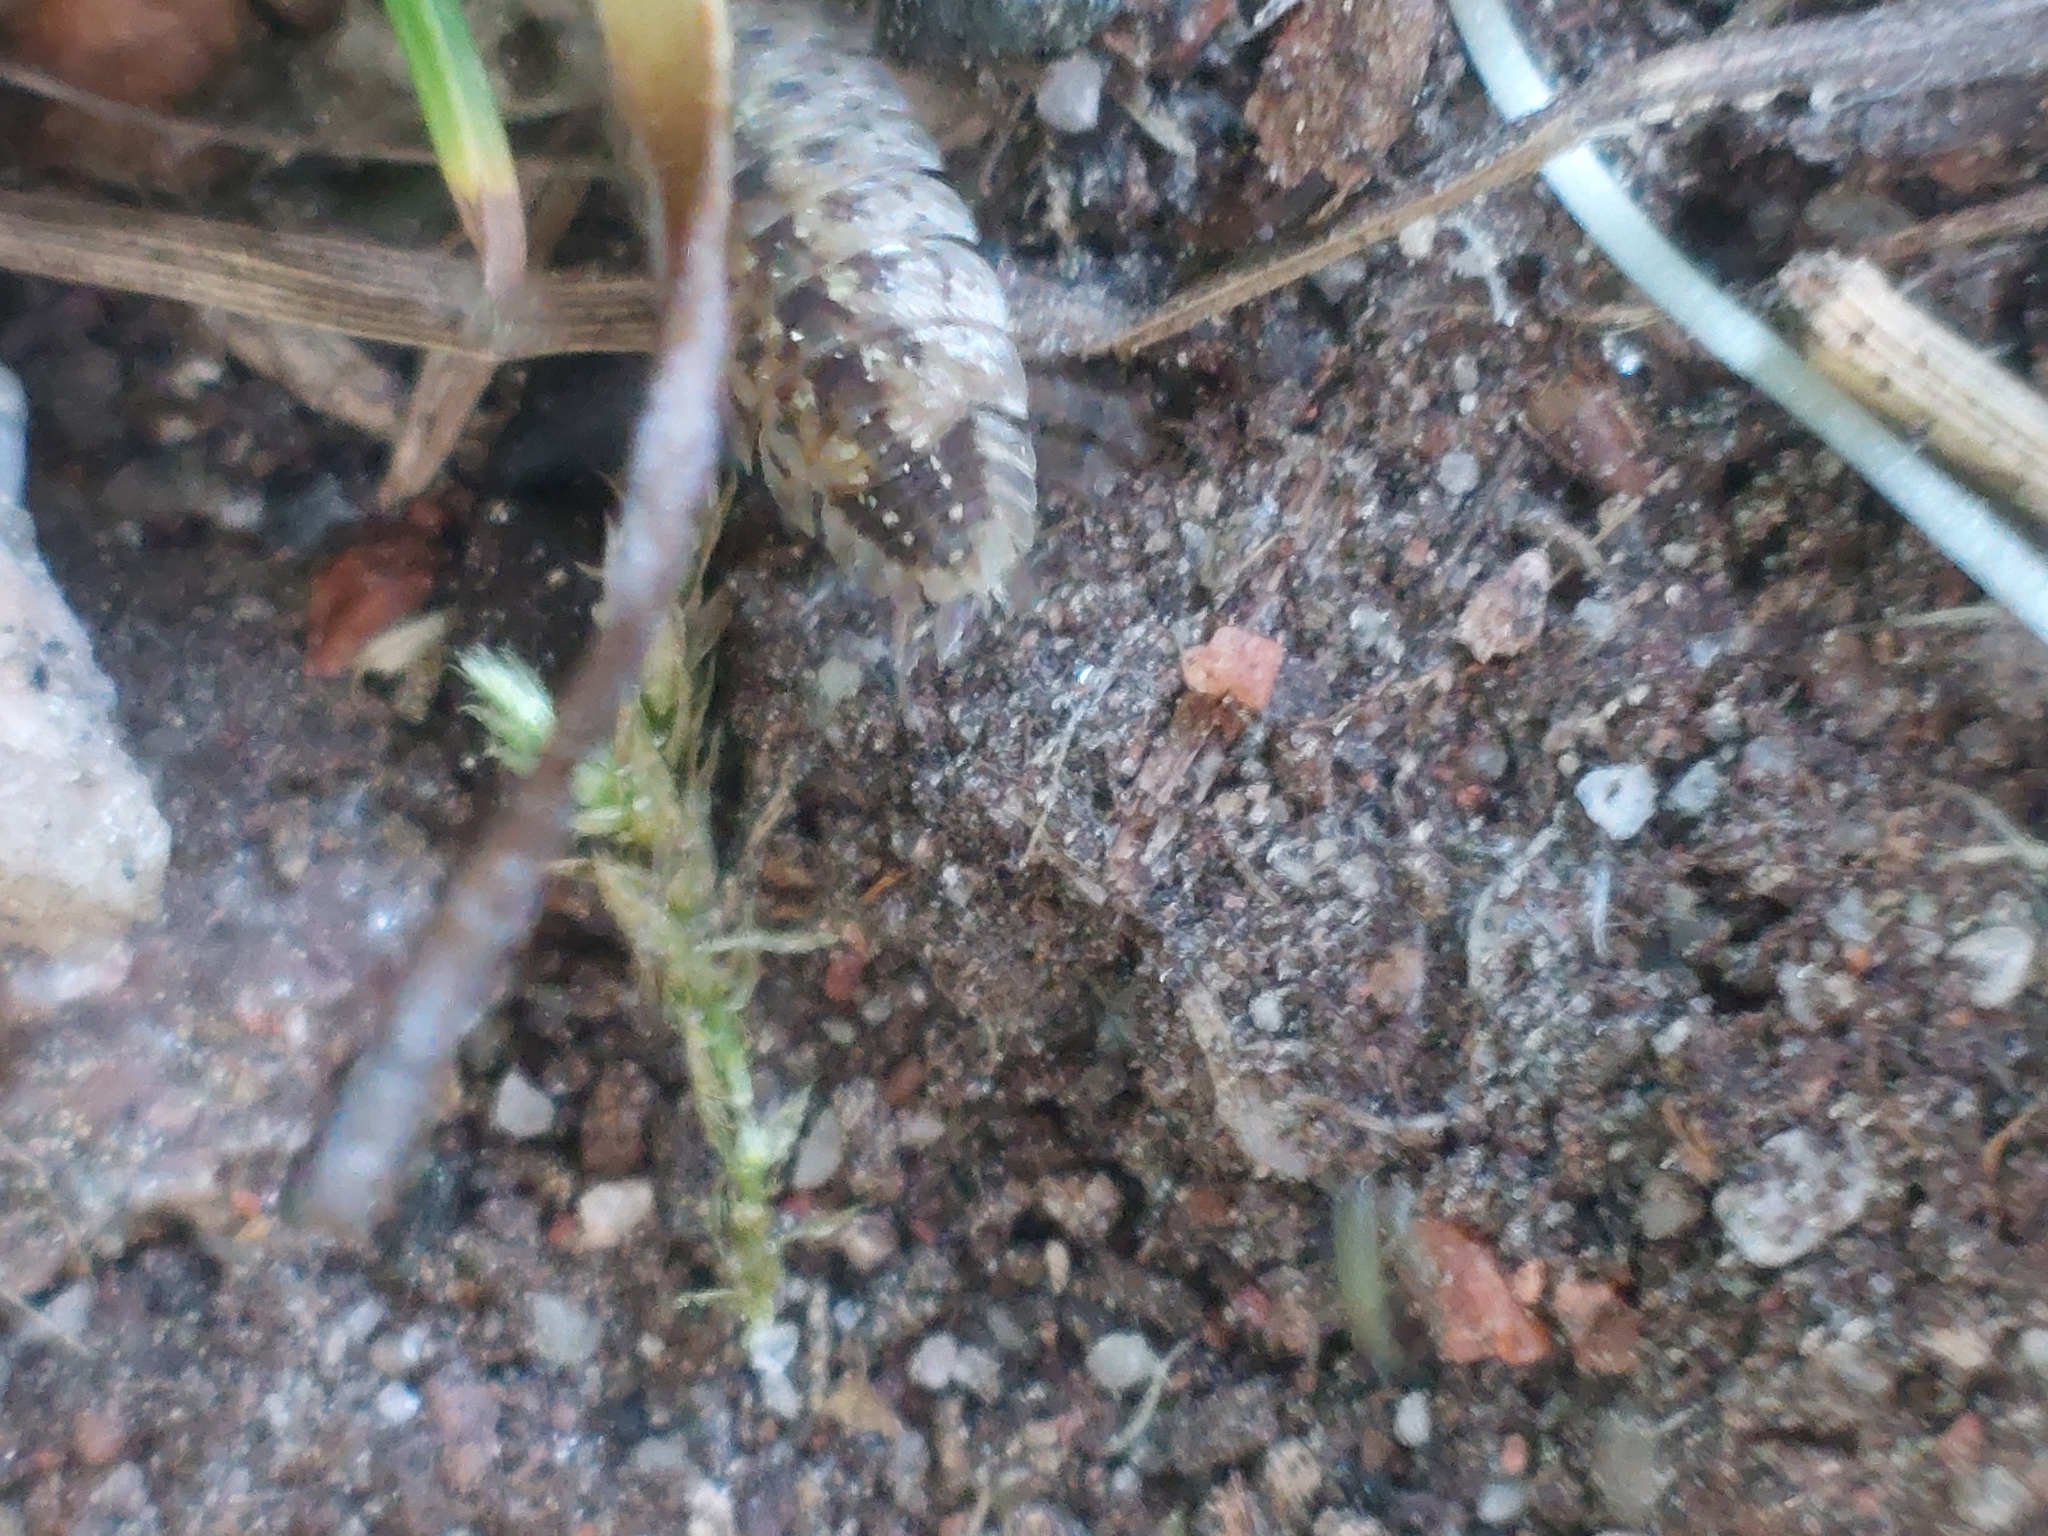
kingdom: Animalia
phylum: Arthropoda
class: Malacostraca
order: Isopoda
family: Porcellionidae
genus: Porcellio
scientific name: Porcellio spinicornis
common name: Painted woodlouse
